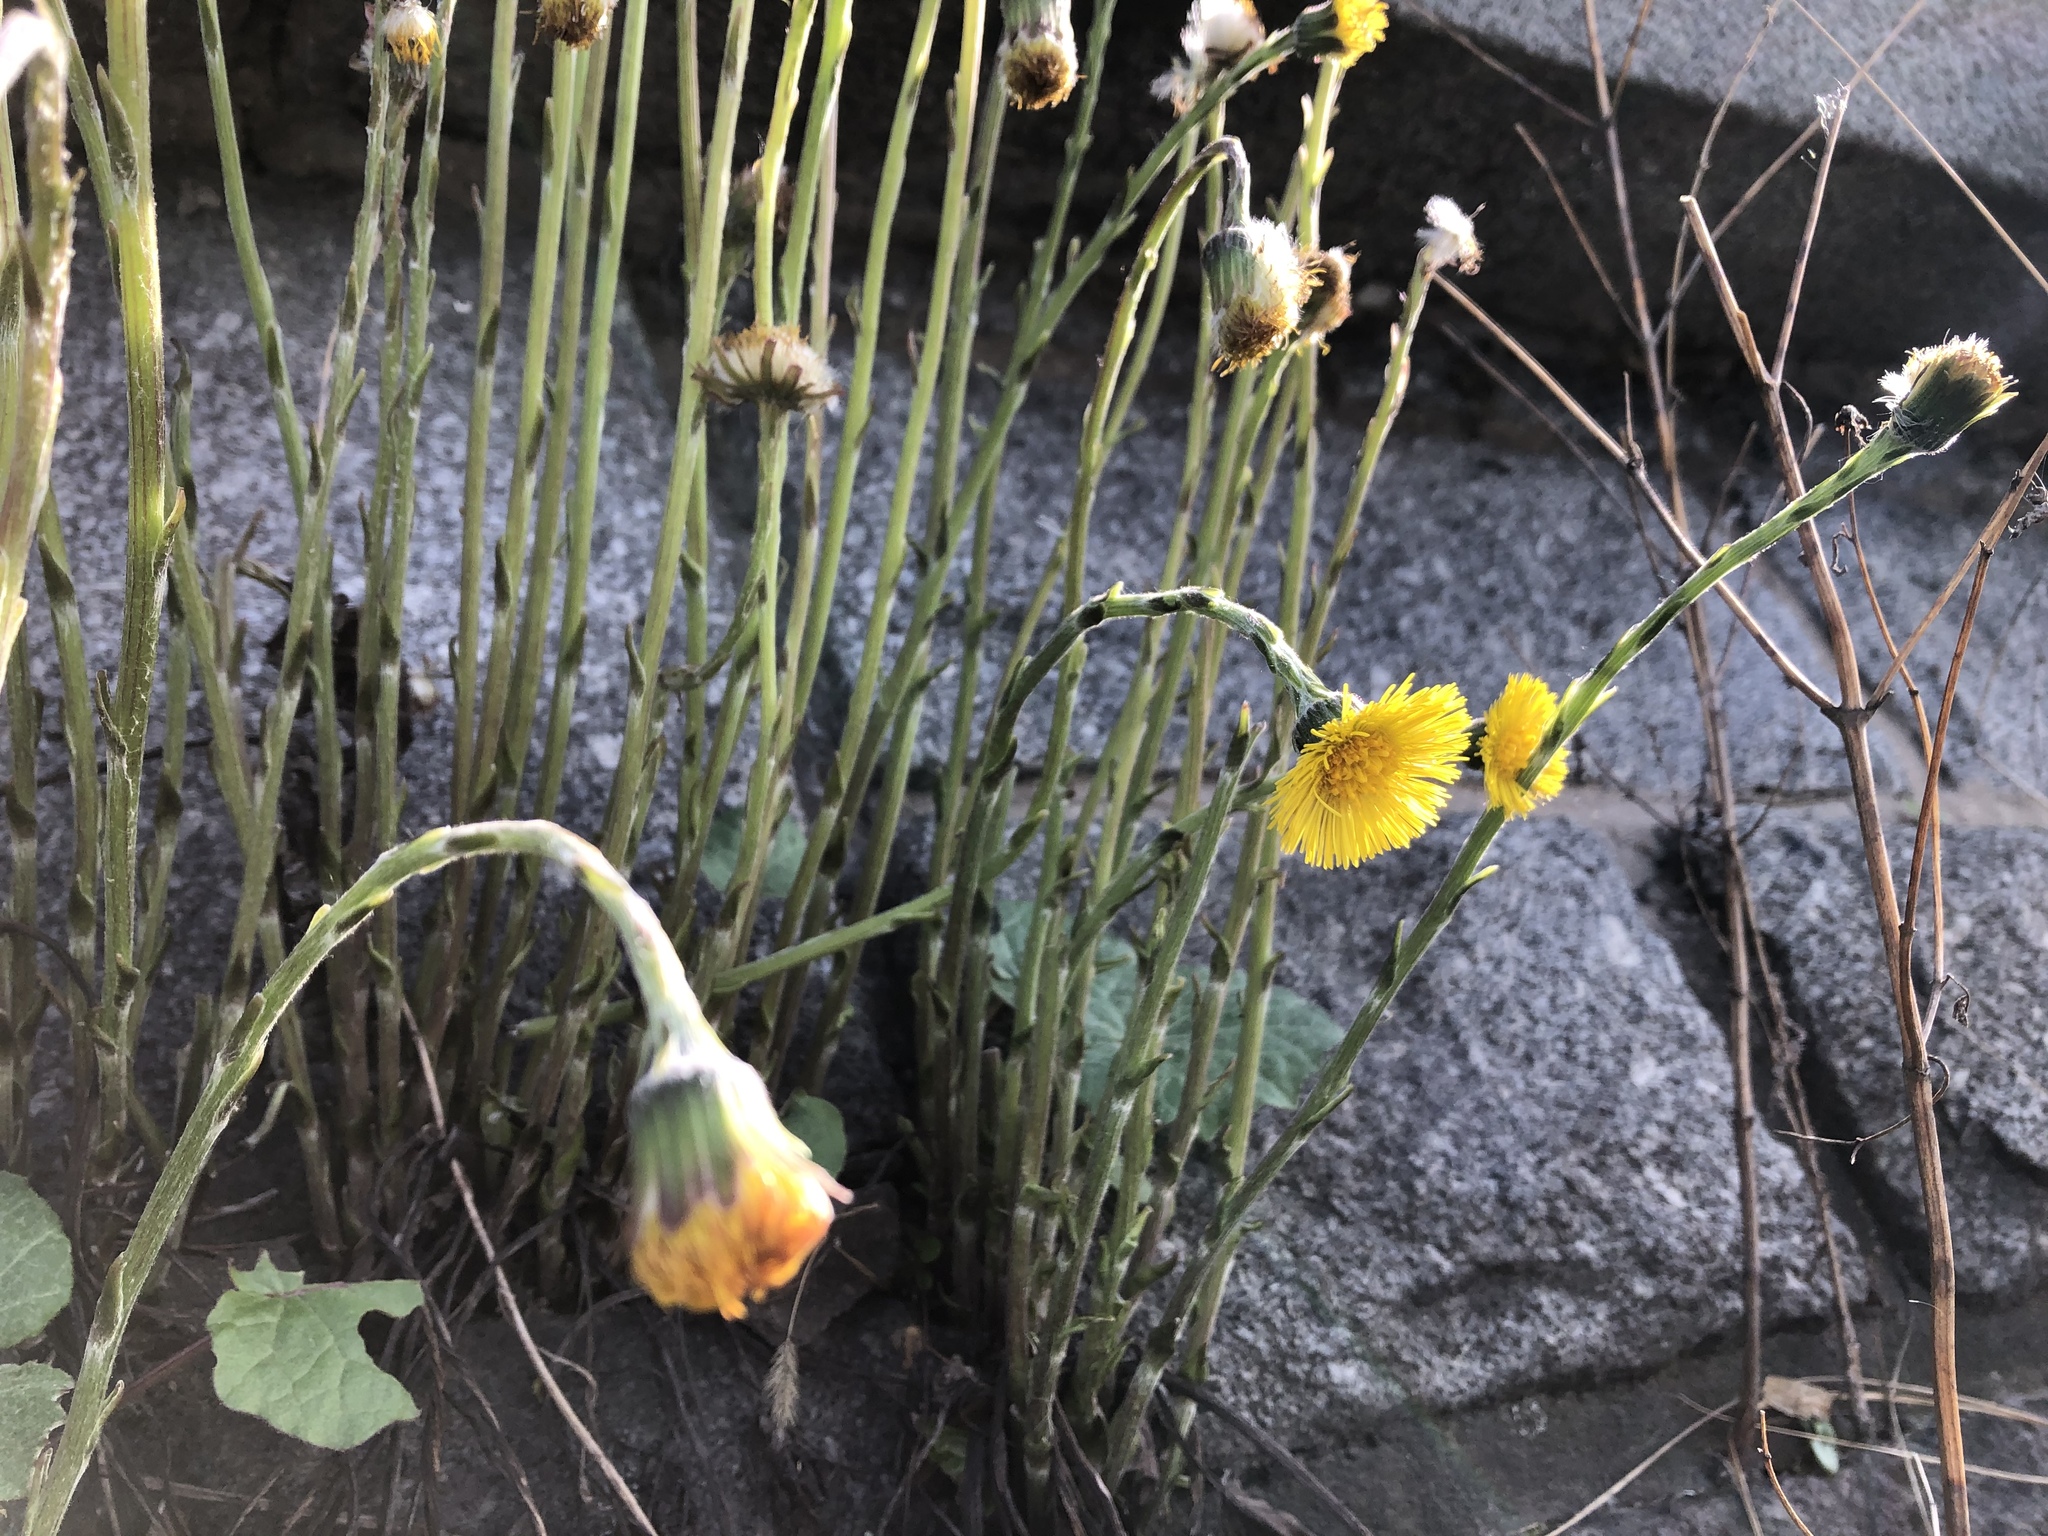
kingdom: Plantae
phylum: Tracheophyta
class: Magnoliopsida
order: Asterales
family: Asteraceae
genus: Tussilago
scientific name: Tussilago farfara
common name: Coltsfoot
